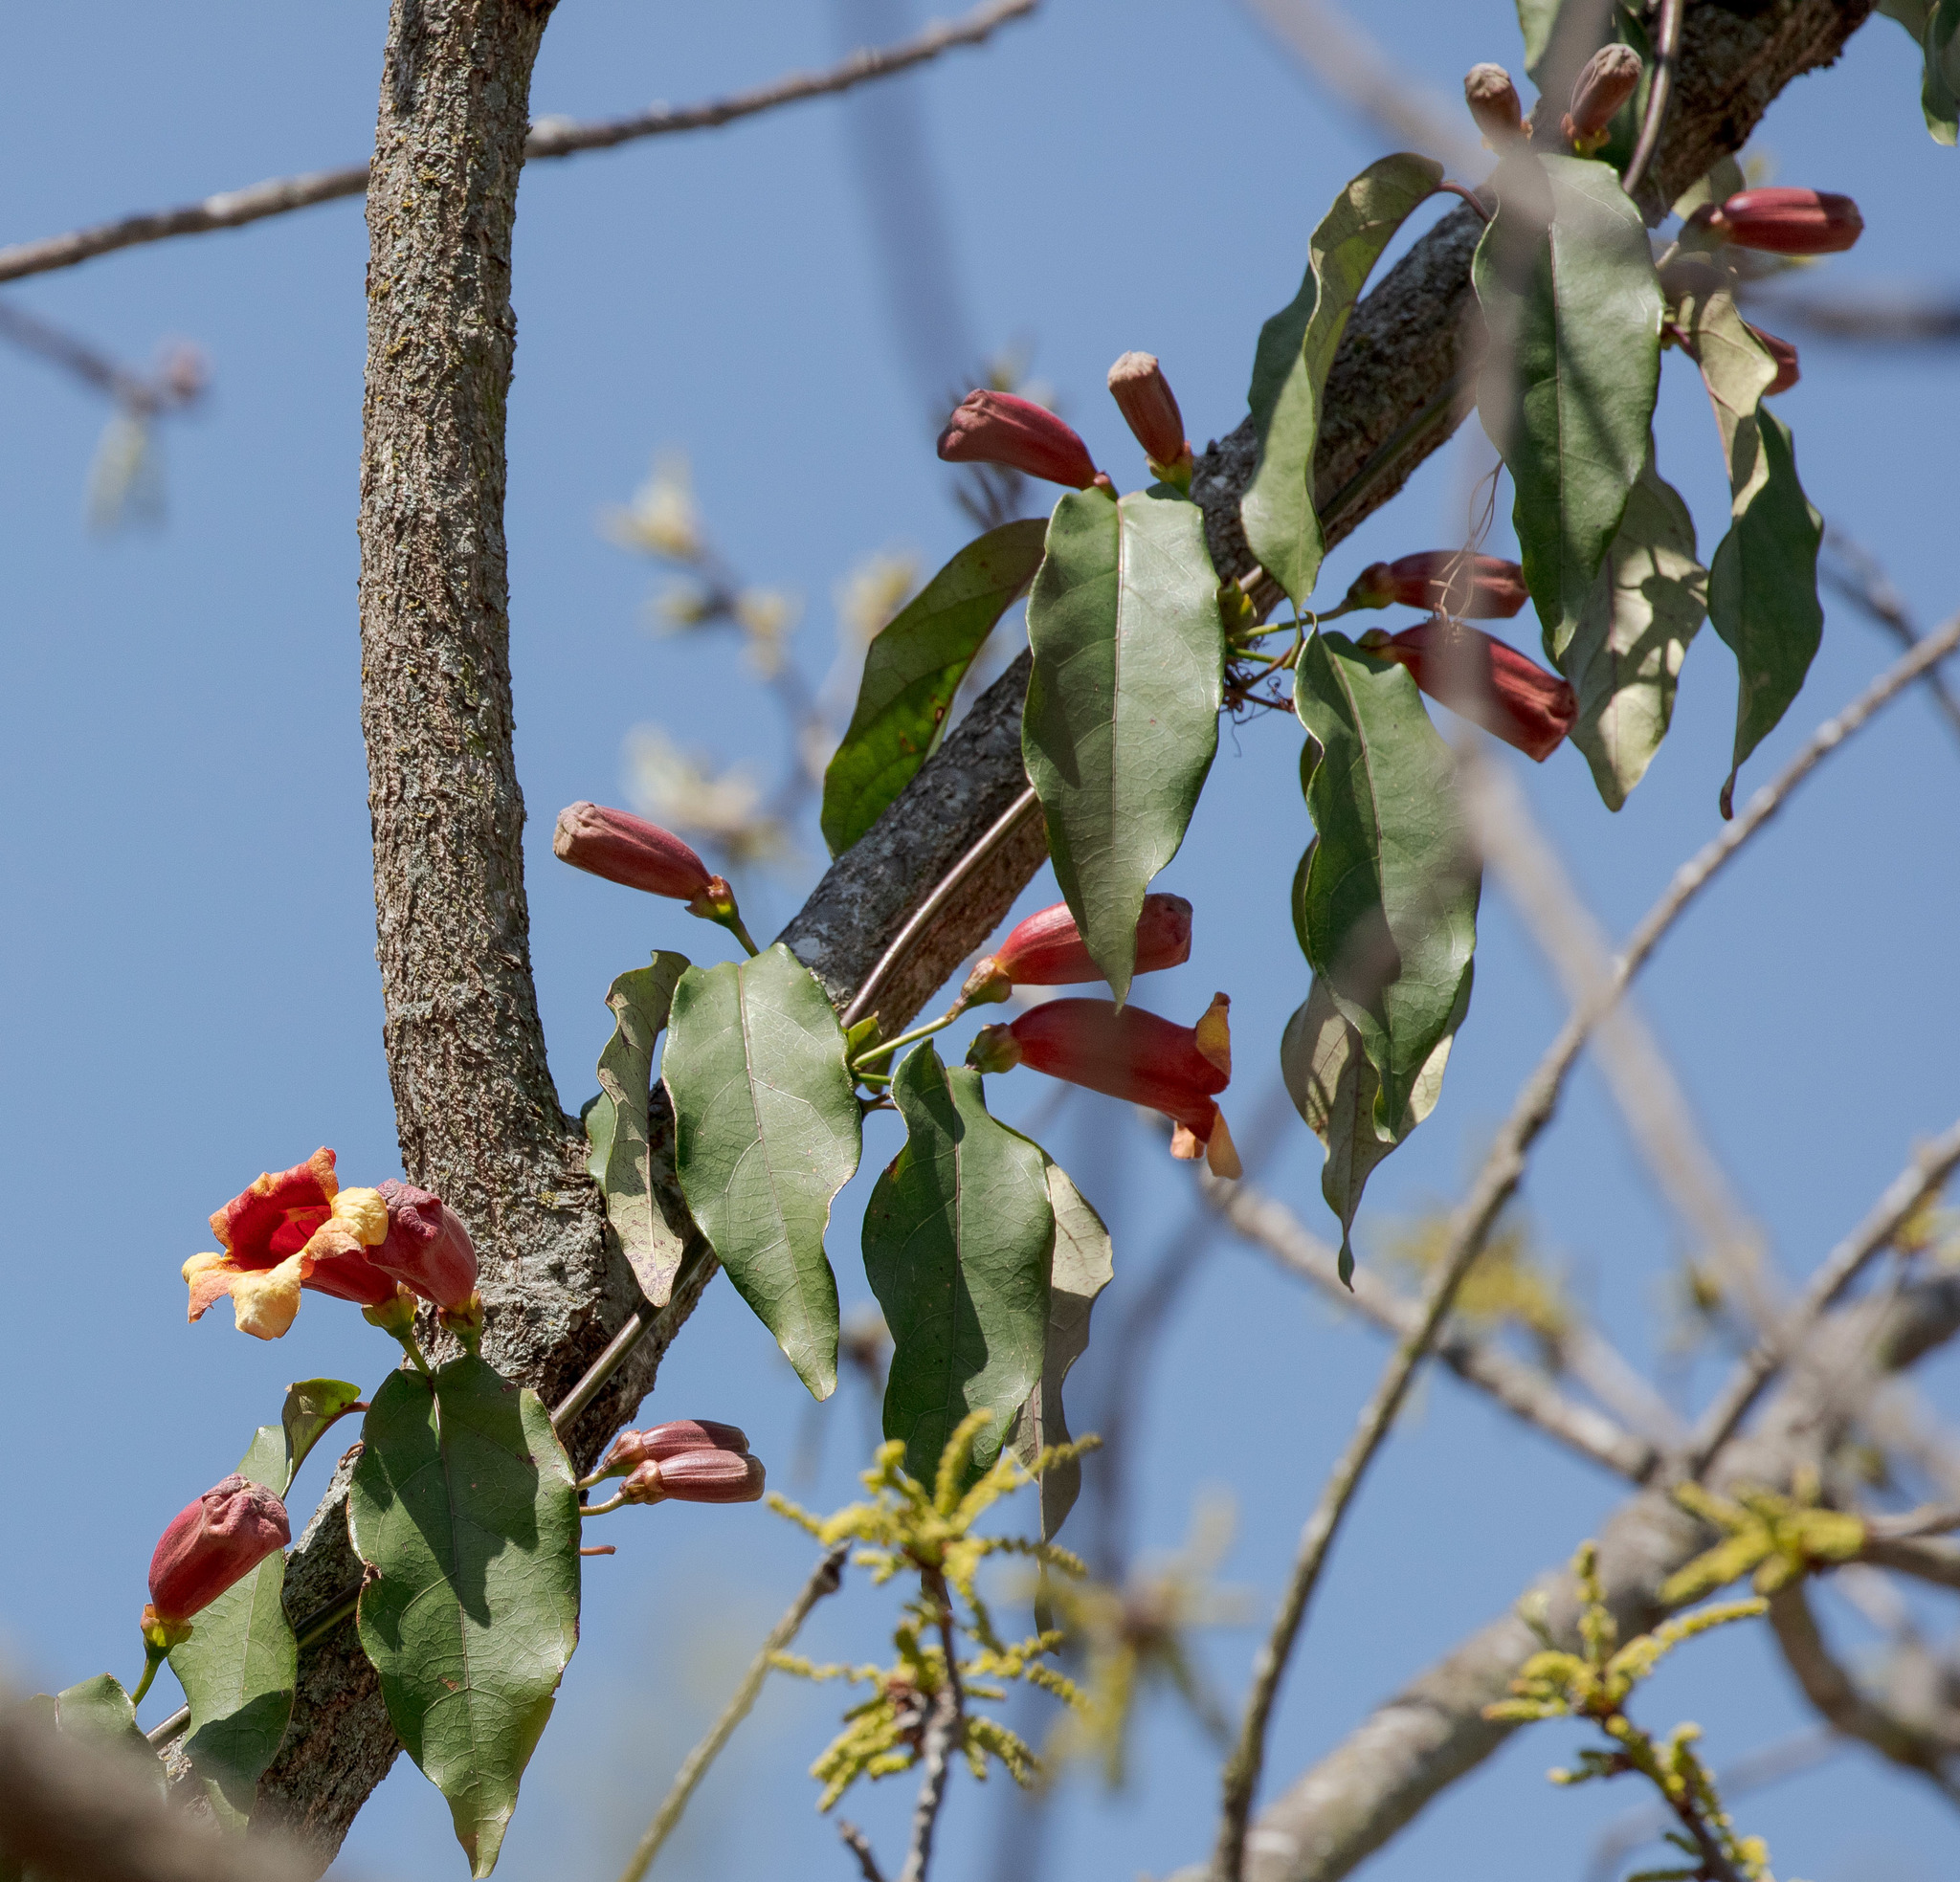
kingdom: Plantae
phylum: Tracheophyta
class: Magnoliopsida
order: Lamiales
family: Bignoniaceae
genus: Bignonia
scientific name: Bignonia capreolata
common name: Crossvine
